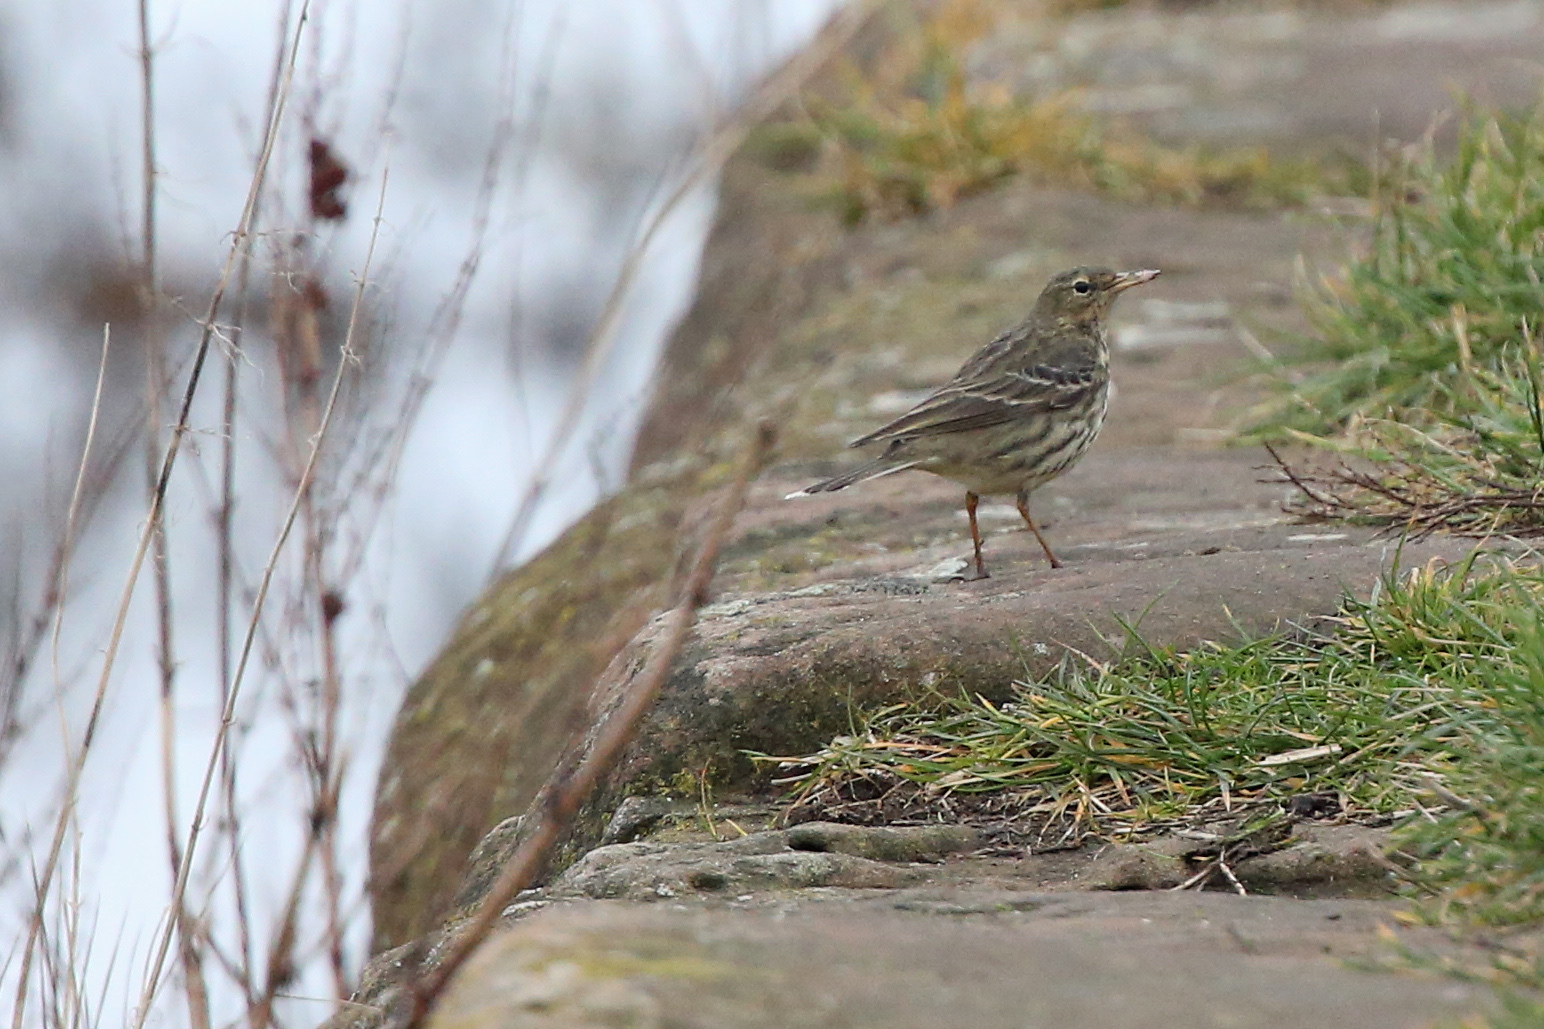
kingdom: Animalia
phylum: Chordata
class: Aves
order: Passeriformes
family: Motacillidae
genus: Anthus
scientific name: Anthus petrosus
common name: Eurasian rock pipit
